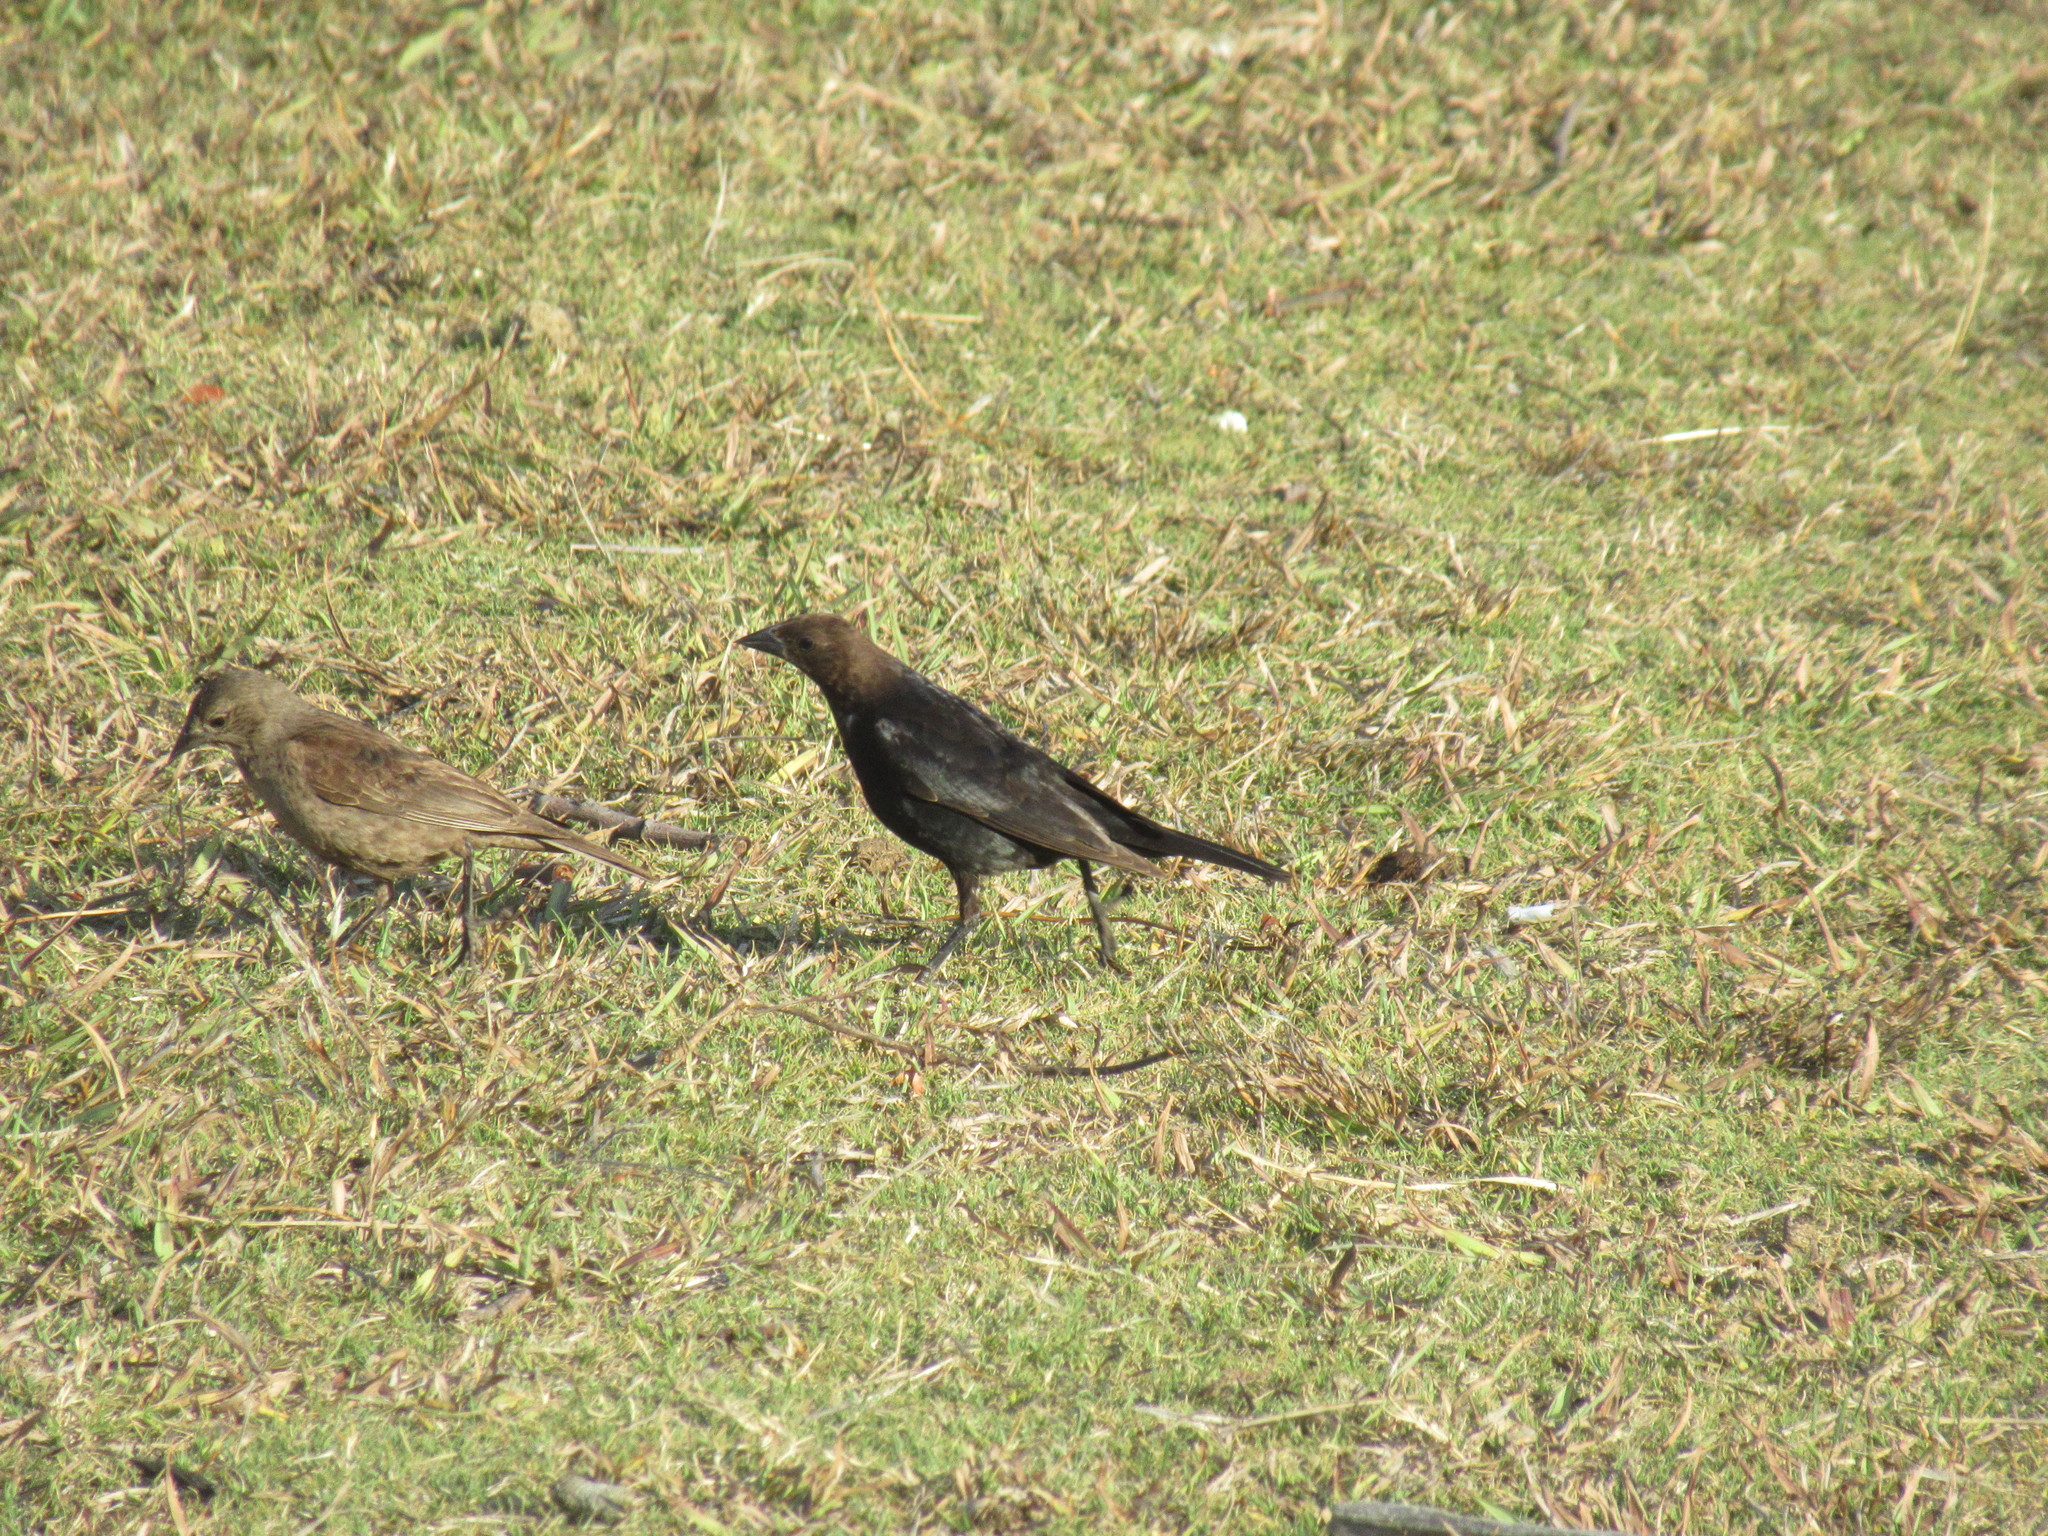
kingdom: Animalia
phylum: Chordata
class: Aves
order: Passeriformes
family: Icteridae
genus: Molothrus
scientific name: Molothrus ater
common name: Brown-headed cowbird
